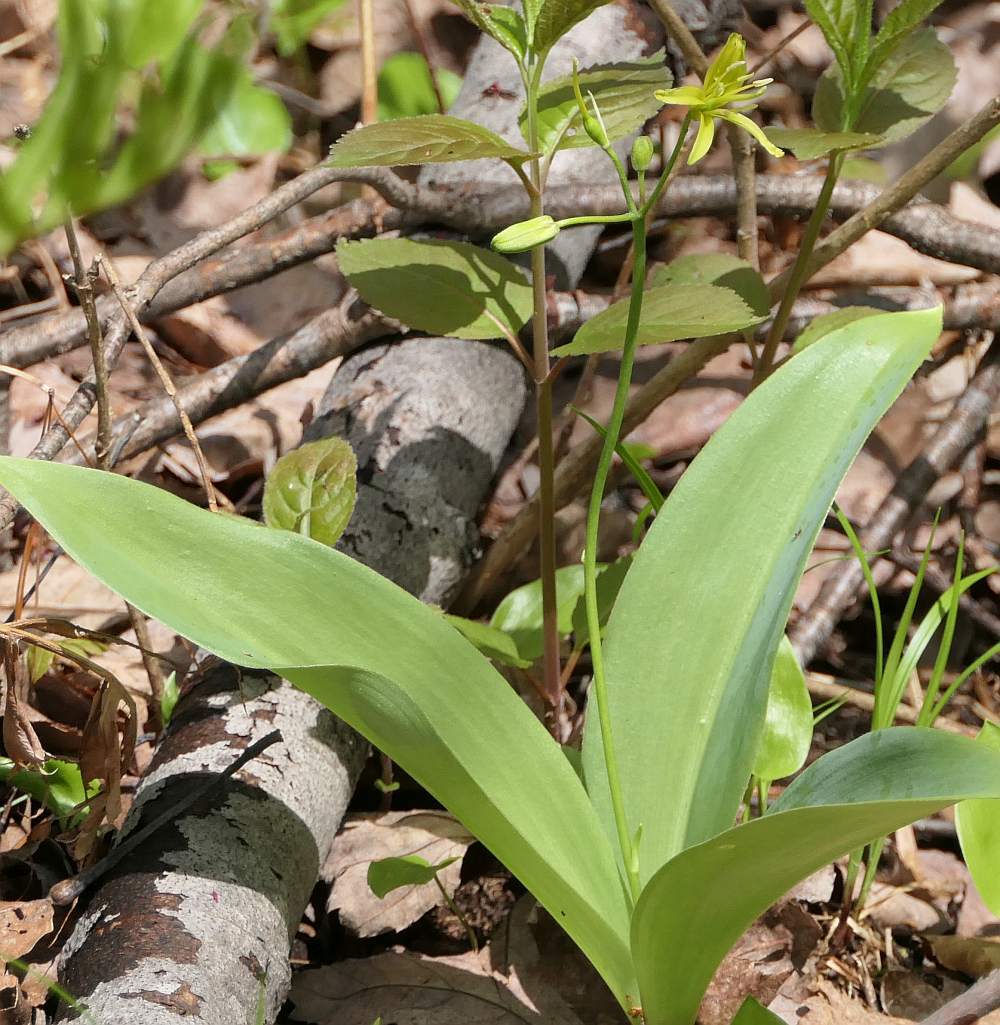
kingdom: Plantae
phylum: Tracheophyta
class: Liliopsida
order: Liliales
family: Liliaceae
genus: Clintonia
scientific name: Clintonia borealis
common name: Yellow clintonia
